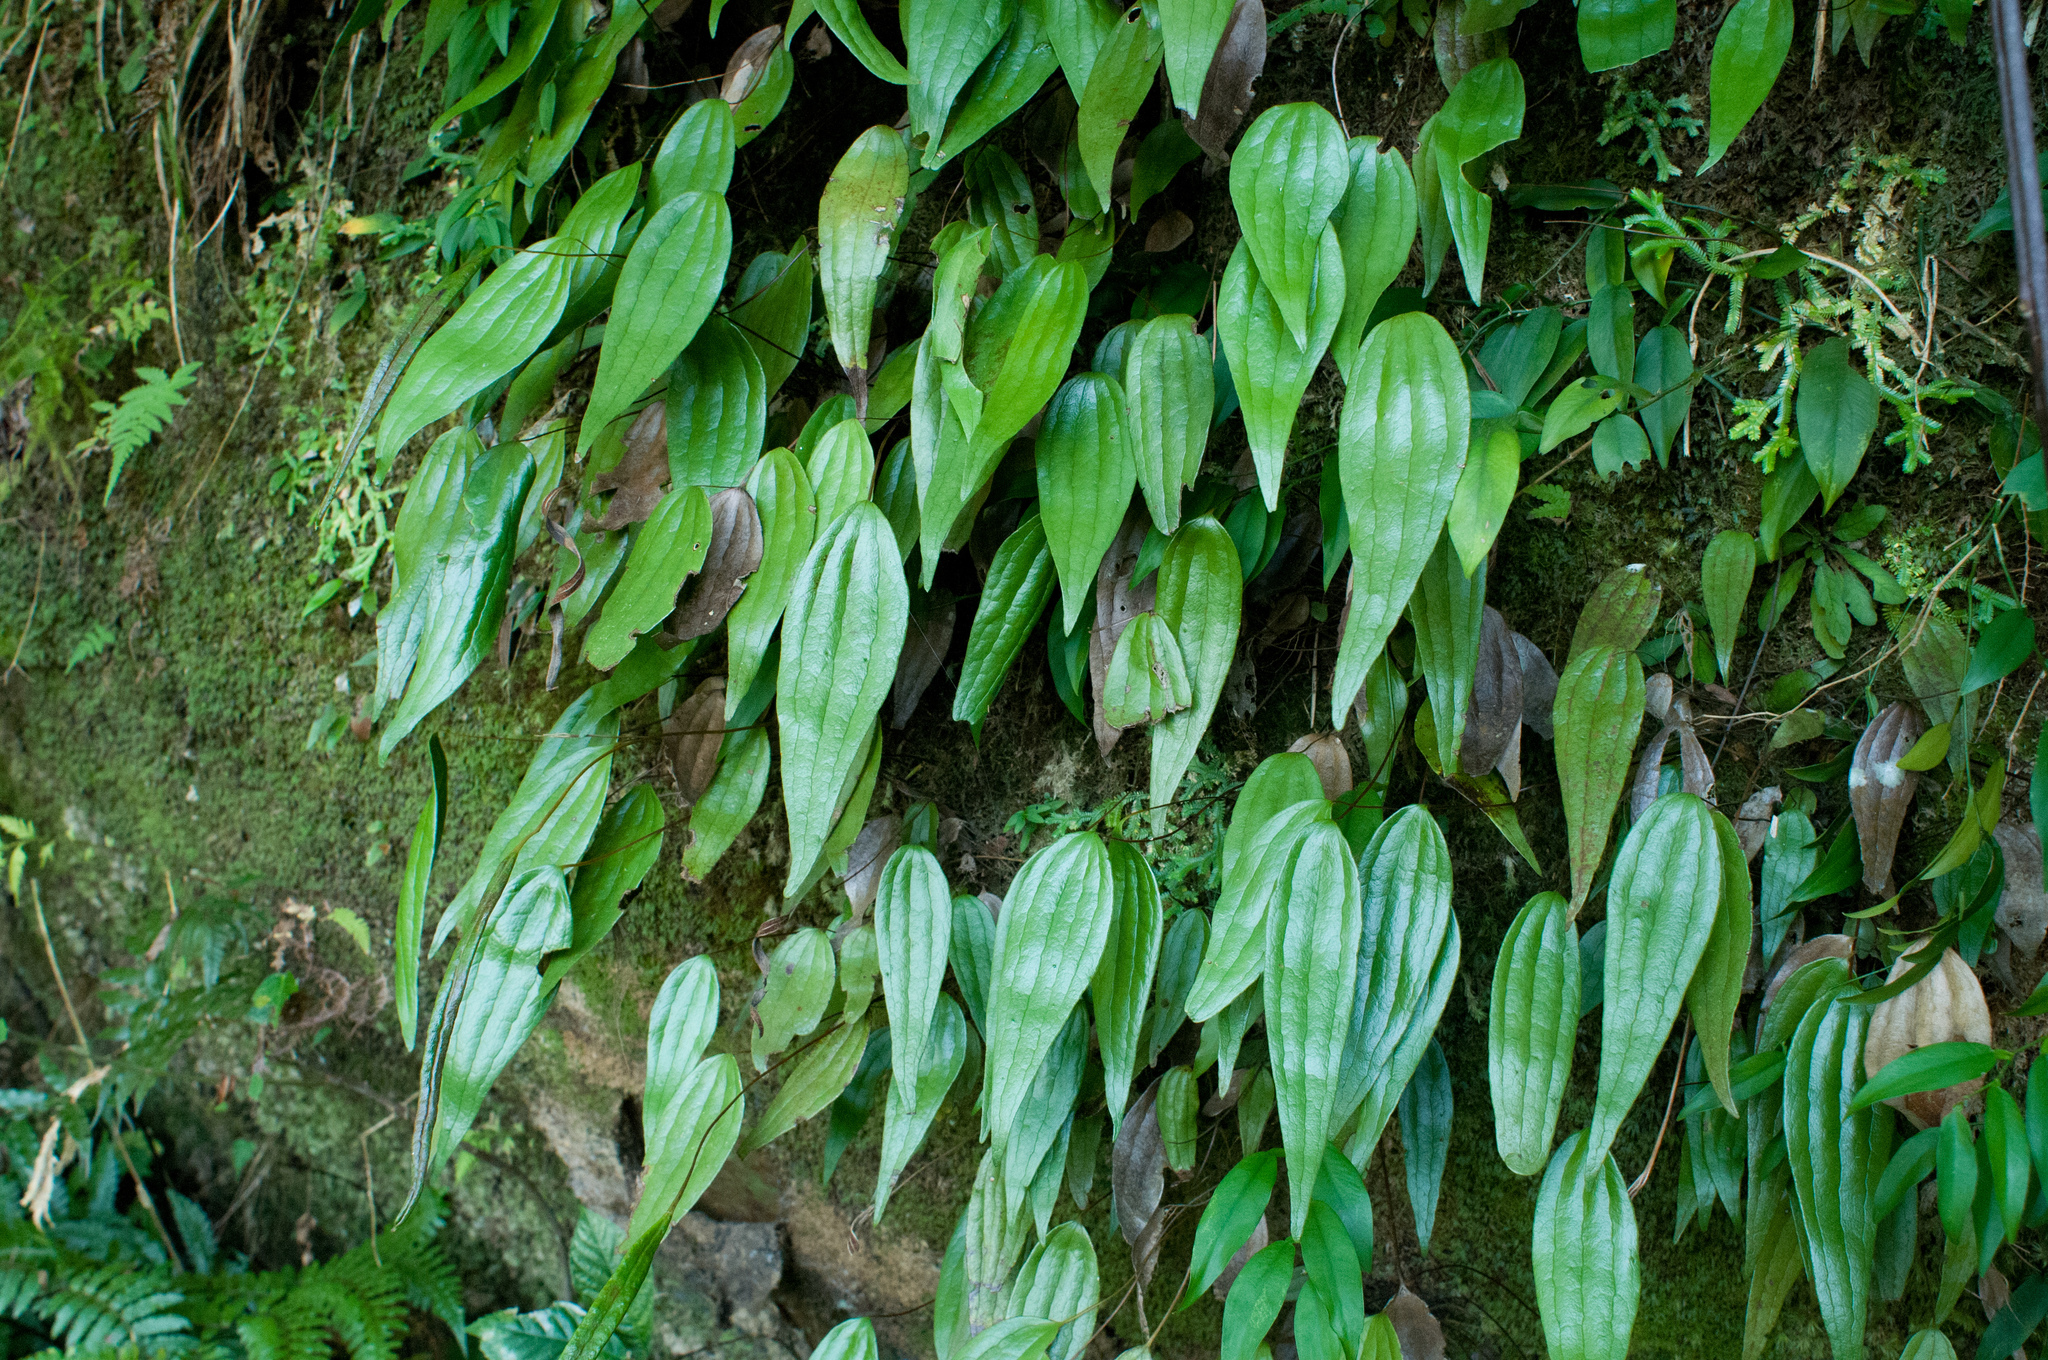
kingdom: Plantae
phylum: Tracheophyta
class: Polypodiopsida
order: Gleicheniales
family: Dipteridaceae
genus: Cheiropleuria
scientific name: Cheiropleuria integrifolia
